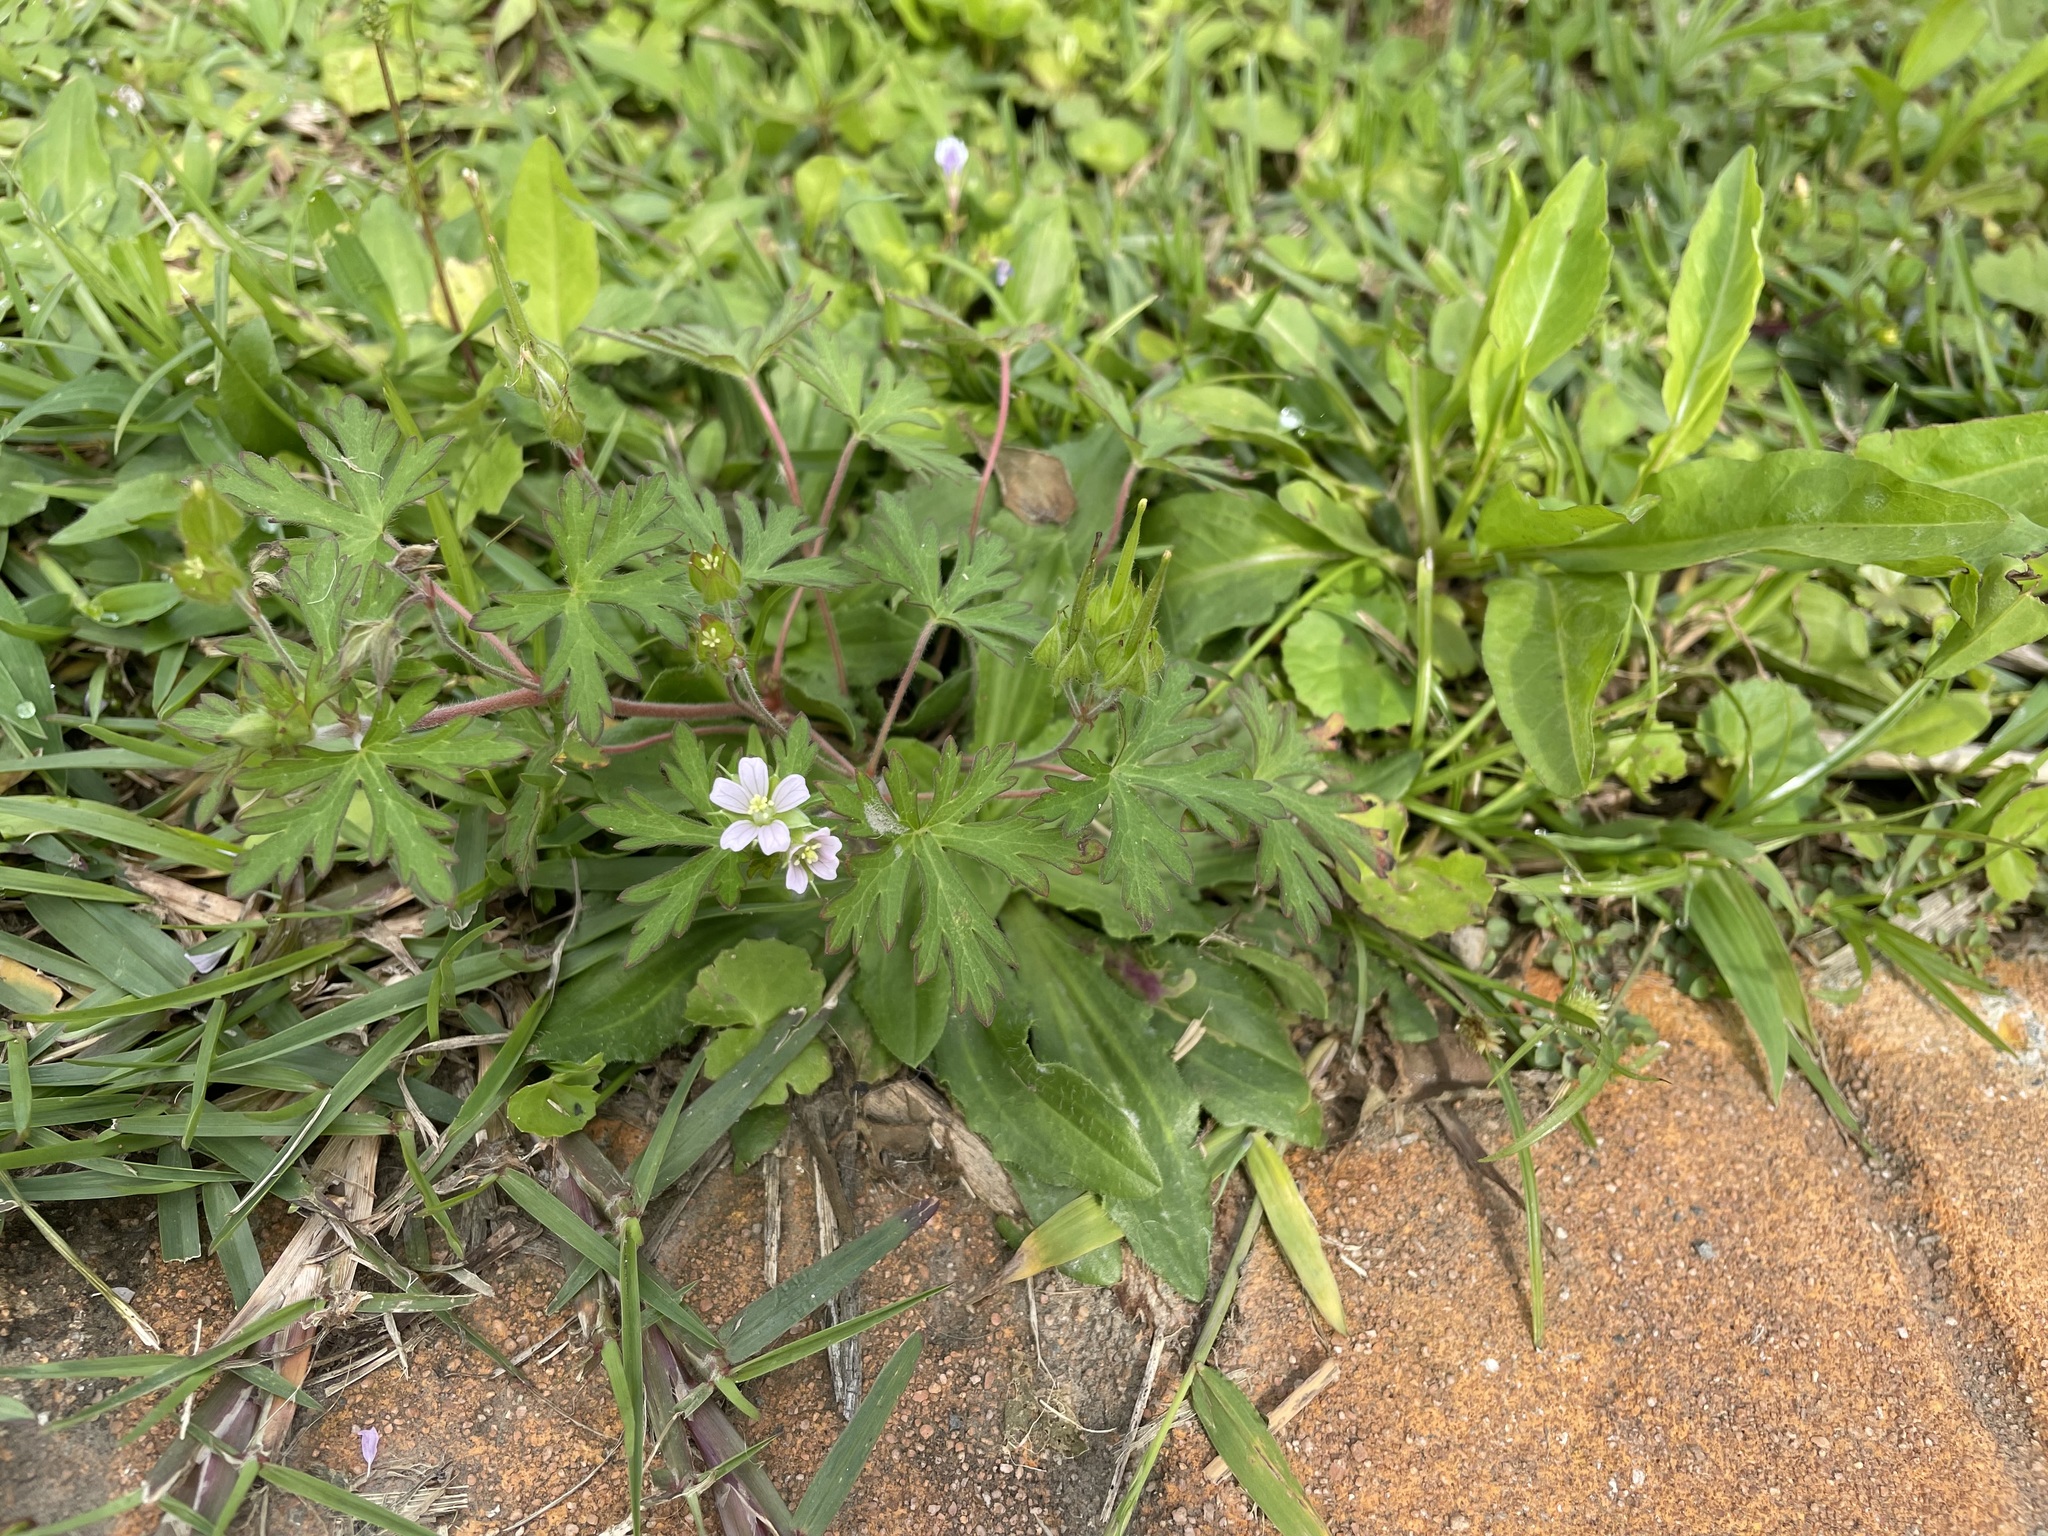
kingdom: Plantae
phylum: Tracheophyta
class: Magnoliopsida
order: Geraniales
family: Geraniaceae
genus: Geranium
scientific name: Geranium carolinianum
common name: Carolina crane's-bill
